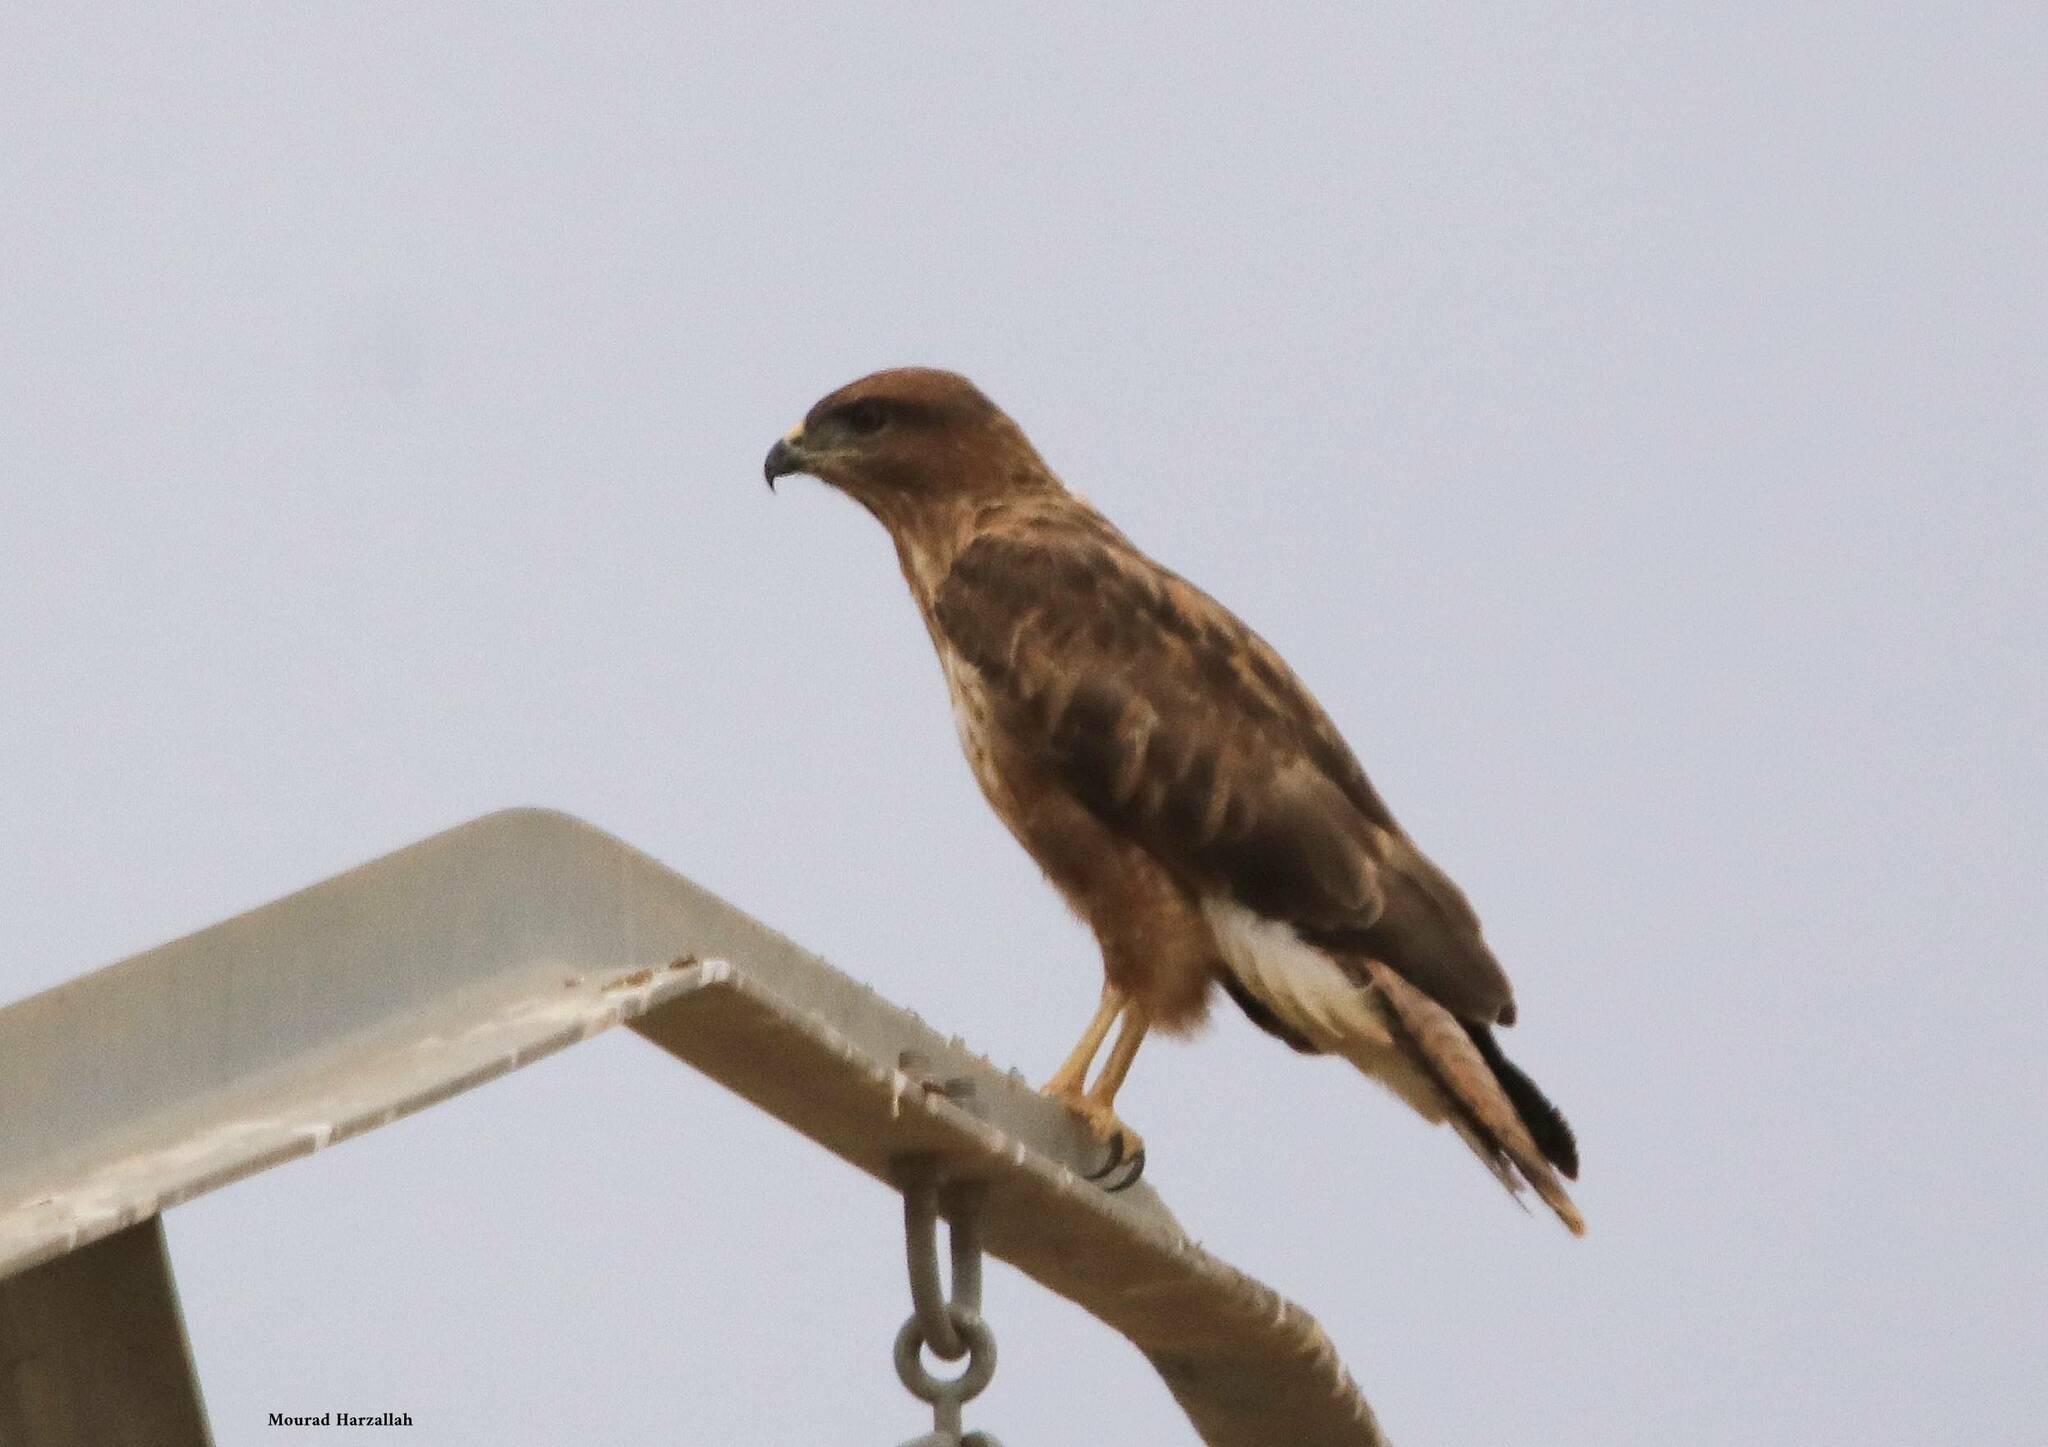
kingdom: Animalia
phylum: Chordata
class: Aves
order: Accipitriformes
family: Accipitridae
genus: Buteo
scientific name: Buteo rufinus
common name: Long-legged buzzard
